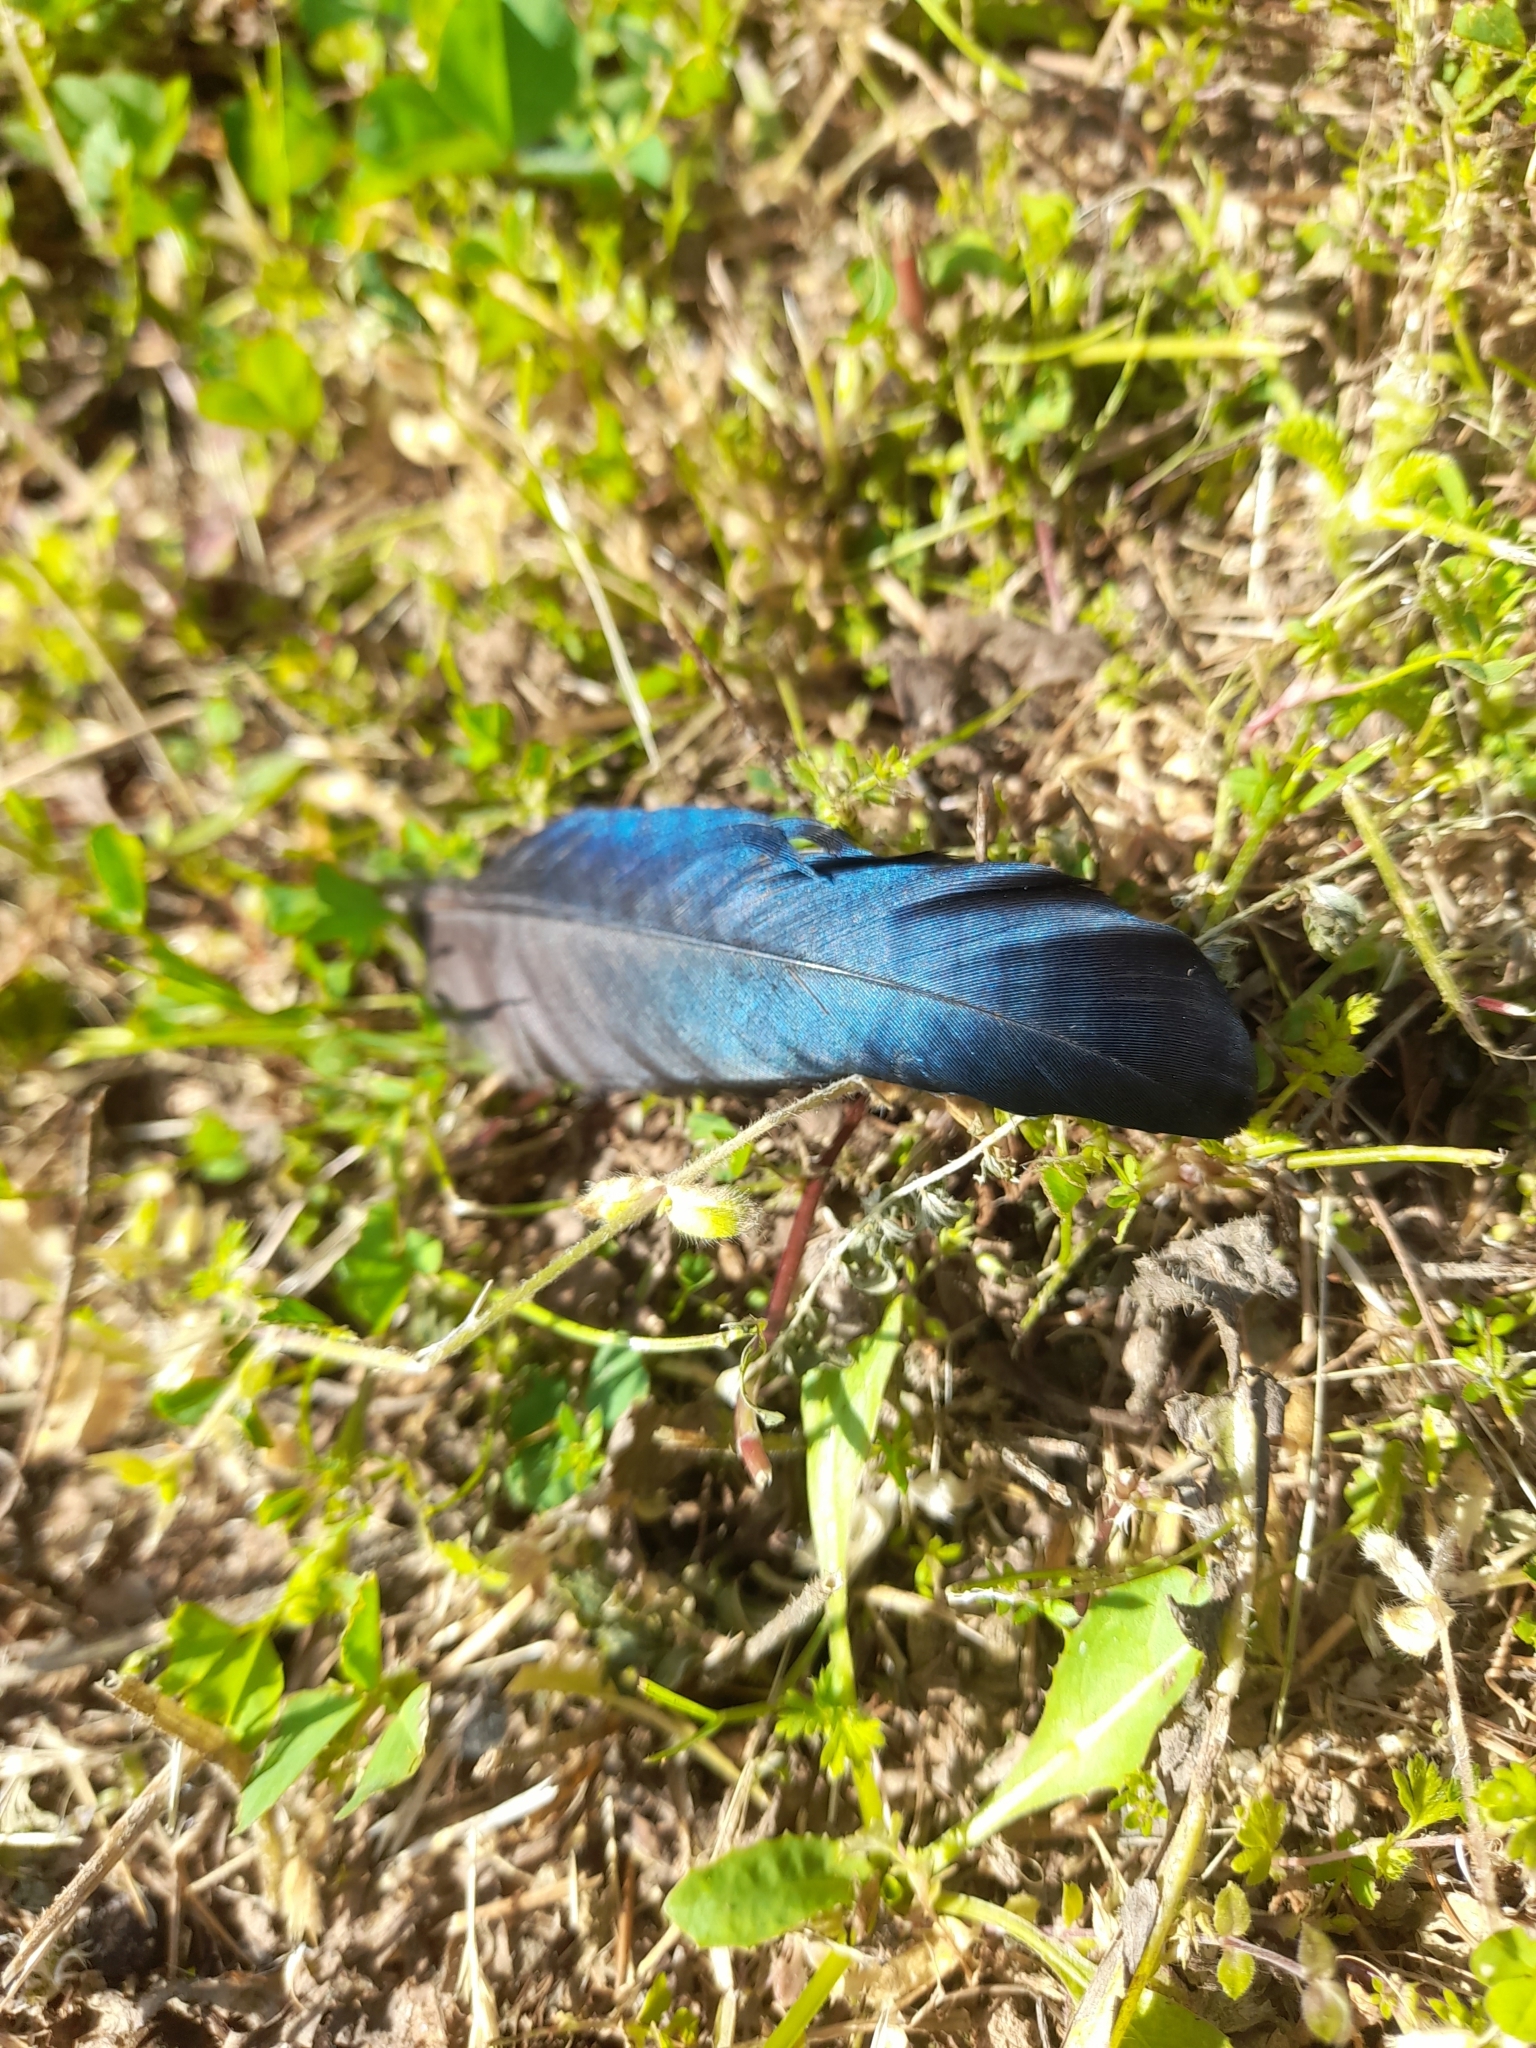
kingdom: Animalia
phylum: Chordata
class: Aves
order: Passeriformes
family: Corvidae
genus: Pica
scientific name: Pica pica
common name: Eurasian magpie
